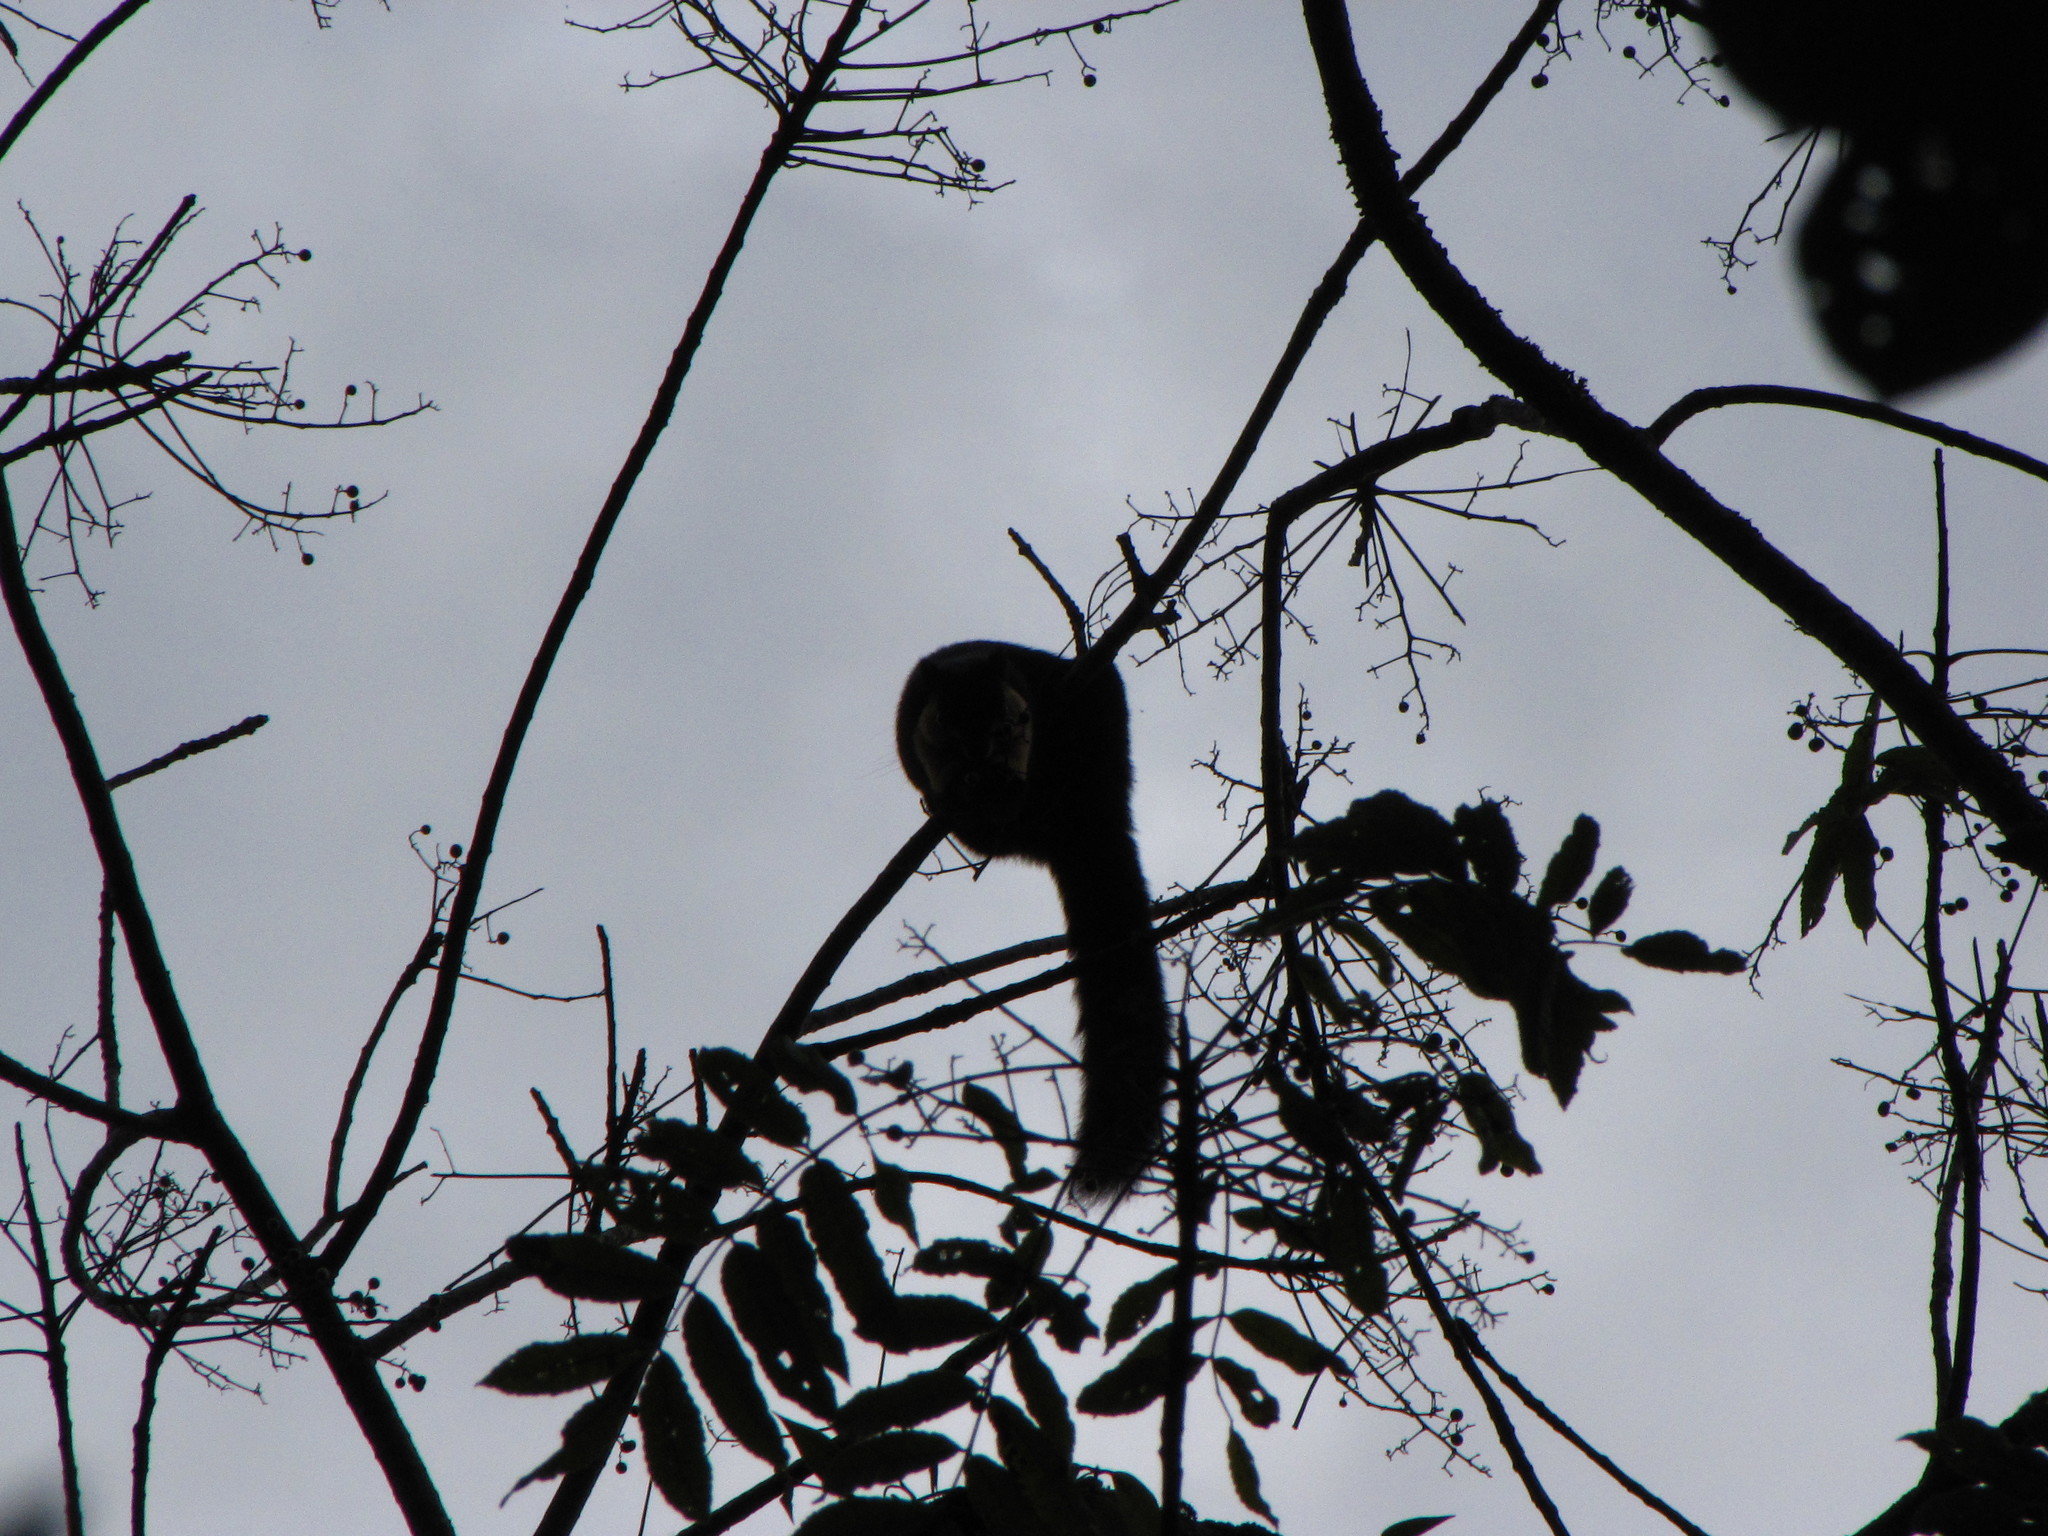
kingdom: Animalia
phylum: Chordata
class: Mammalia
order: Rodentia
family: Sciuridae
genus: Ratufa
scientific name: Ratufa bicolor
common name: Black giant squirrel
